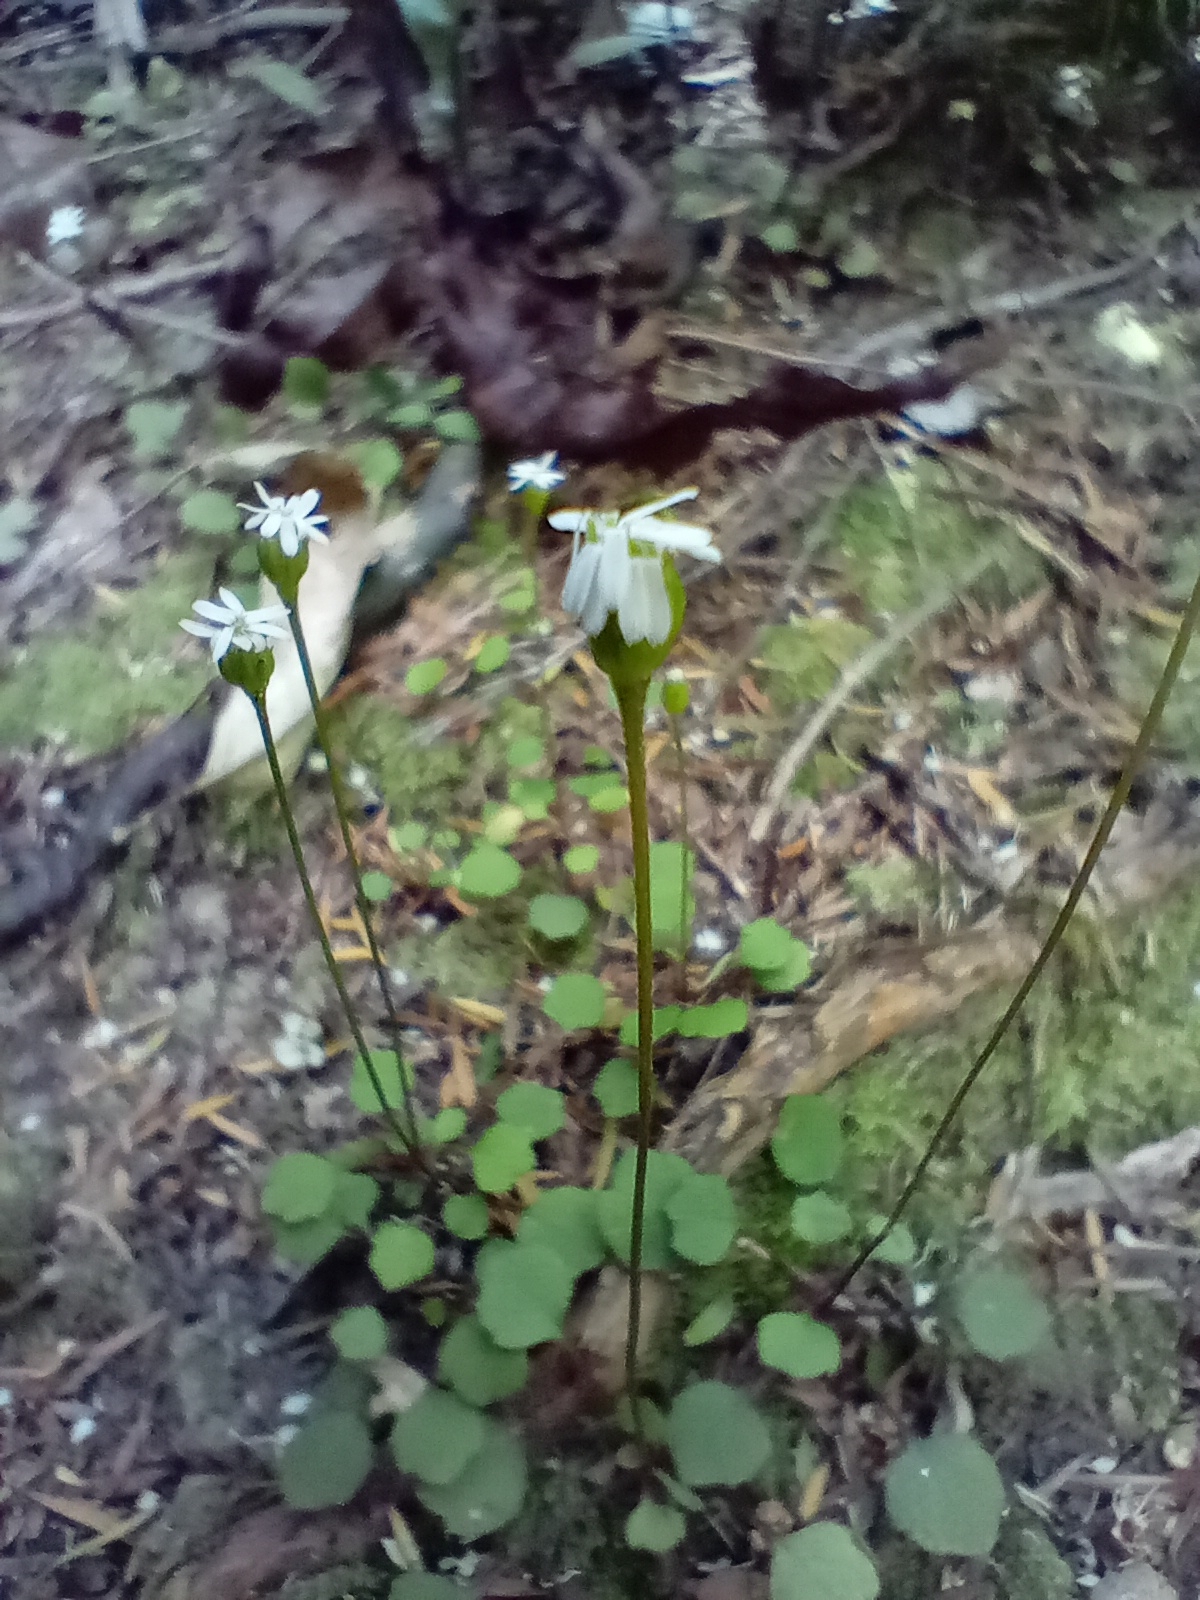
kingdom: Plantae
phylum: Tracheophyta
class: Magnoliopsida
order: Asterales
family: Asteraceae
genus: Lagenophora
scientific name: Lagenophora strangulata
